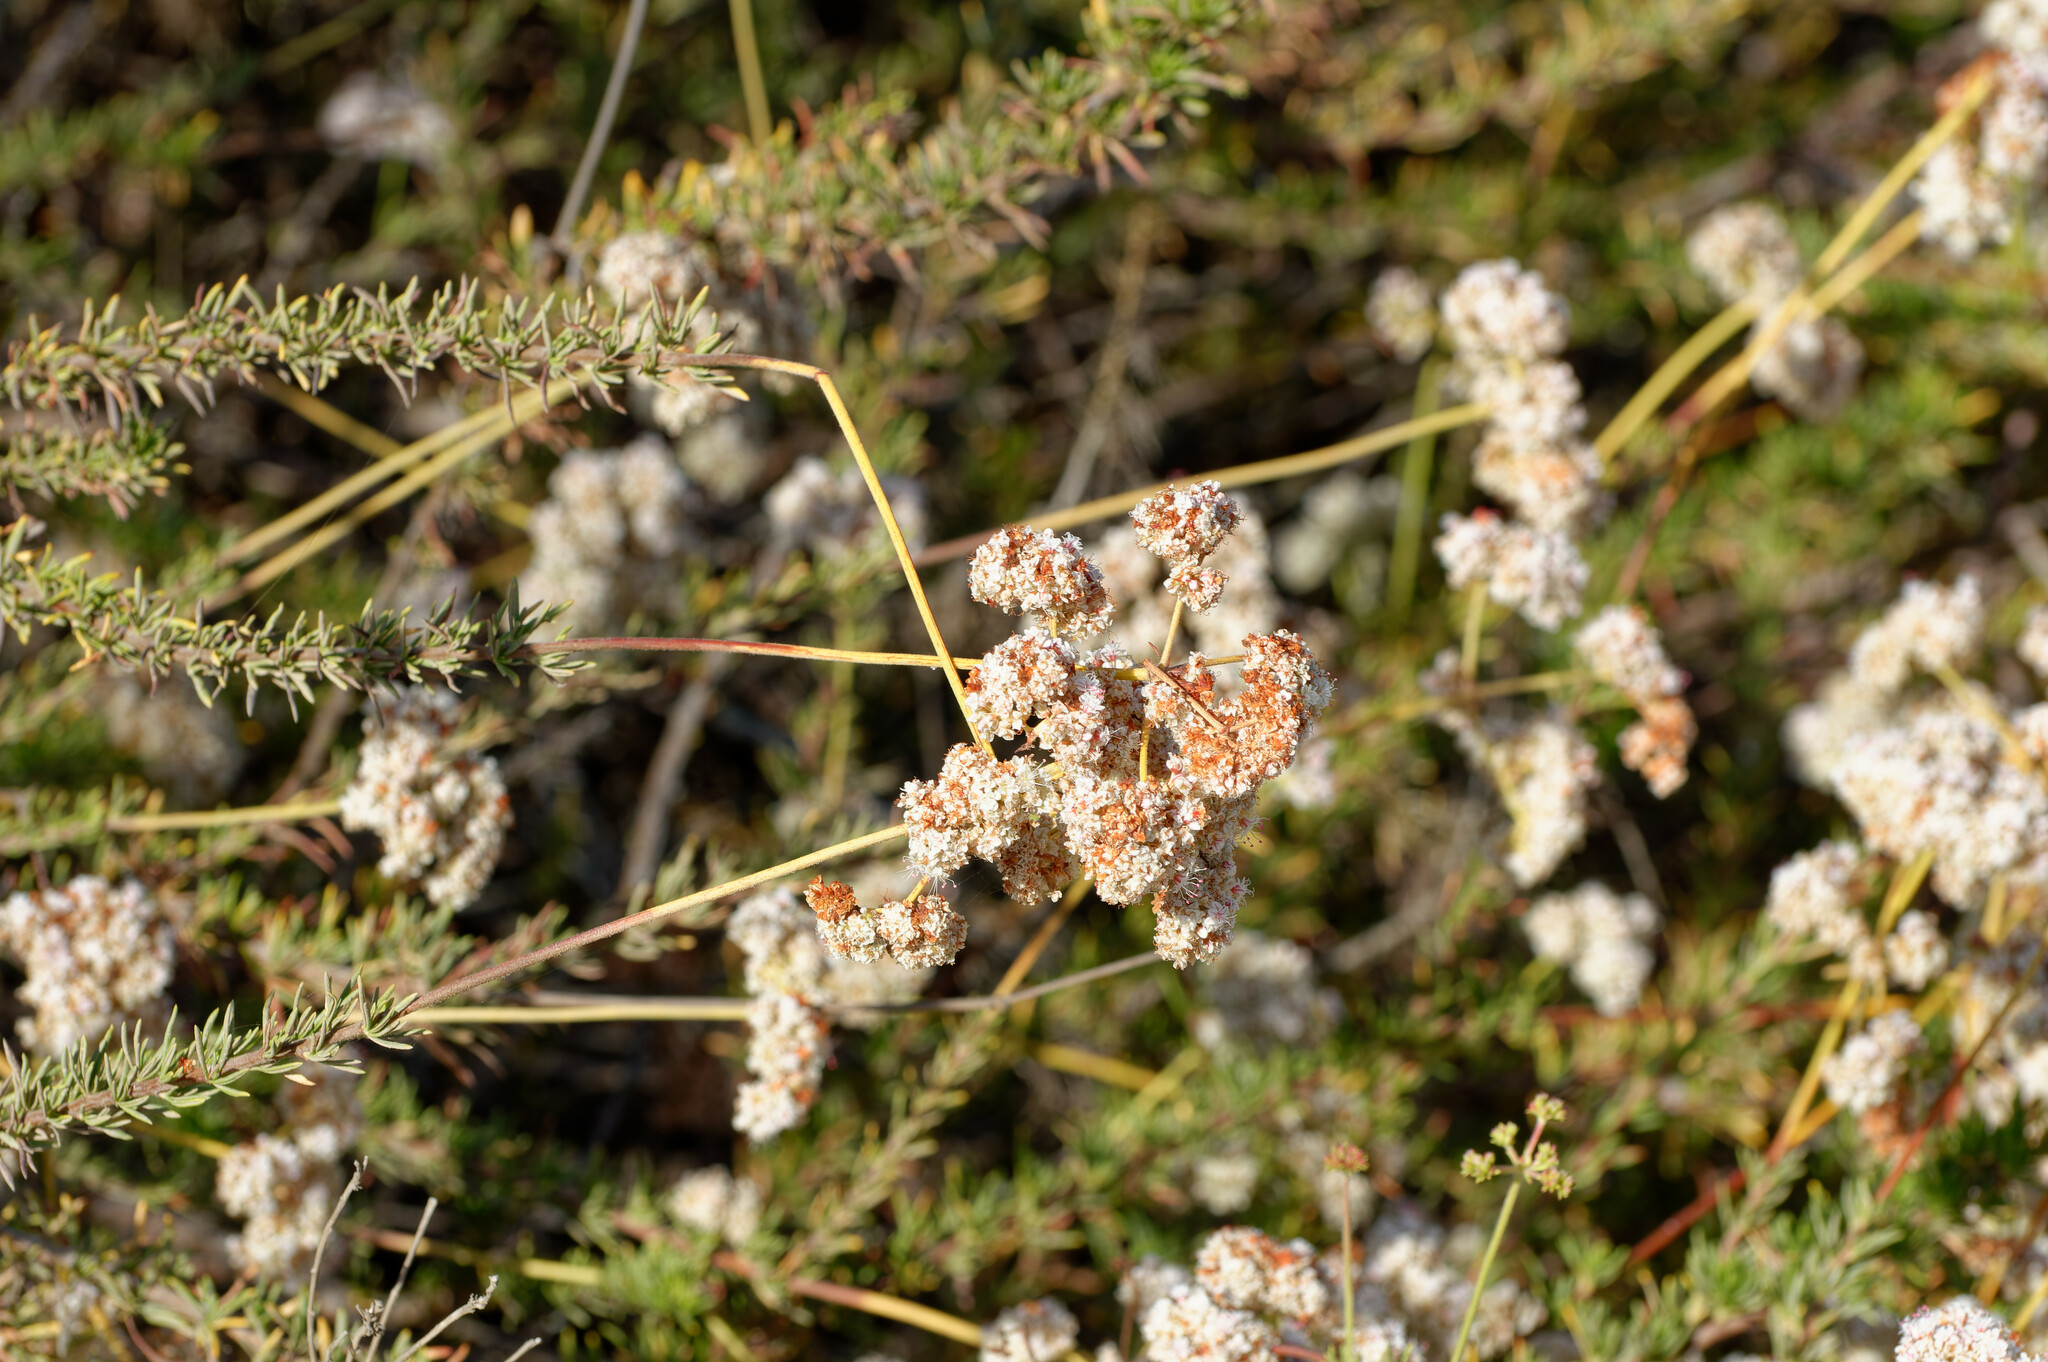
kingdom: Plantae
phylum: Tracheophyta
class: Magnoliopsida
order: Caryophyllales
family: Polygonaceae
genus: Eriogonum
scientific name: Eriogonum fasciculatum
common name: California wild buckwheat
